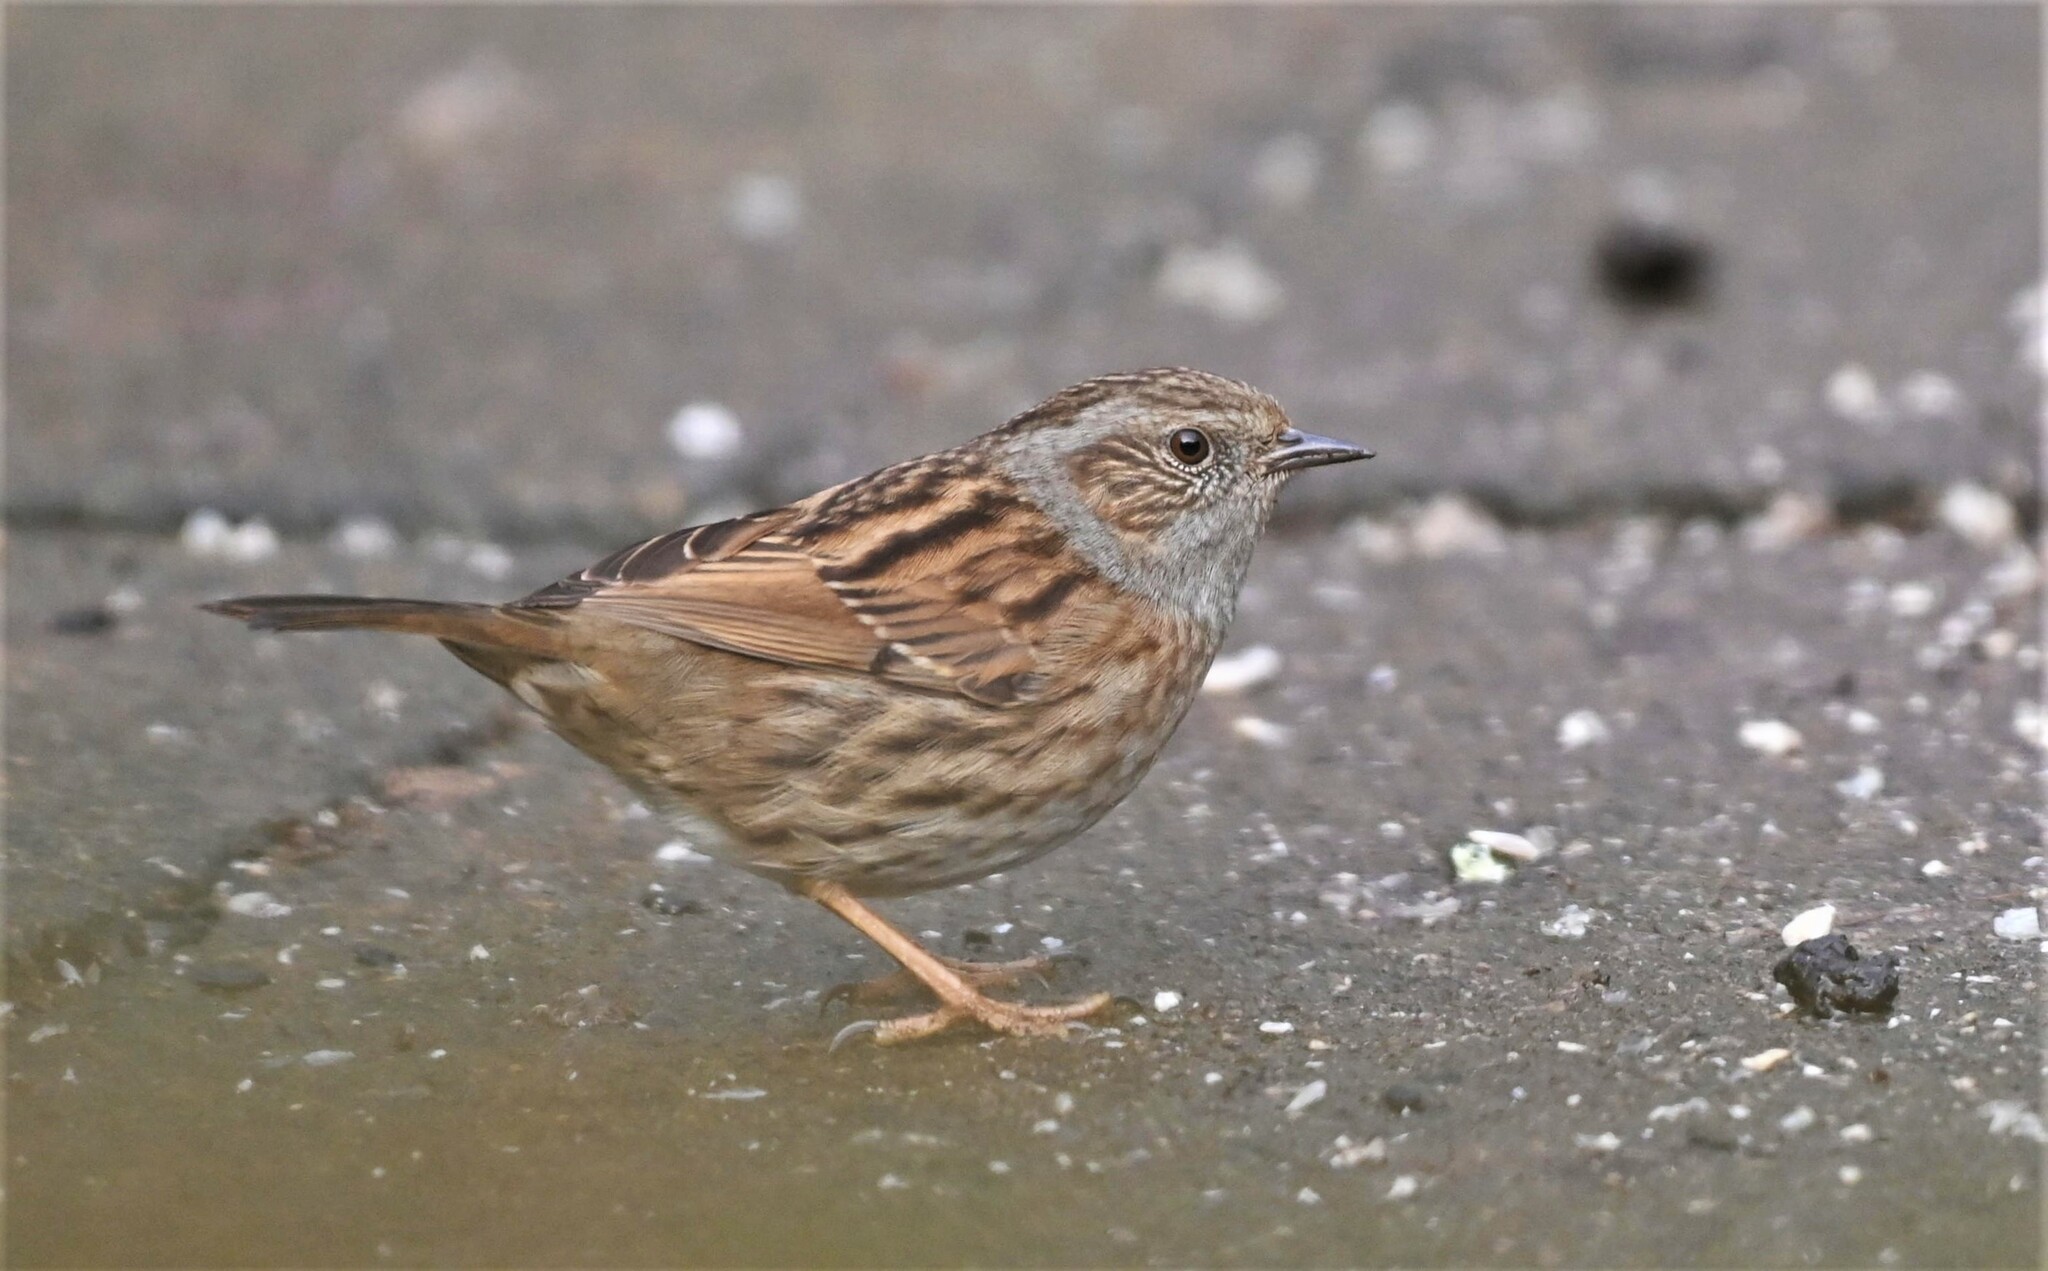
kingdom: Animalia
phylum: Chordata
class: Aves
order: Passeriformes
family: Prunellidae
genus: Prunella
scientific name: Prunella modularis
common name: Dunnock
